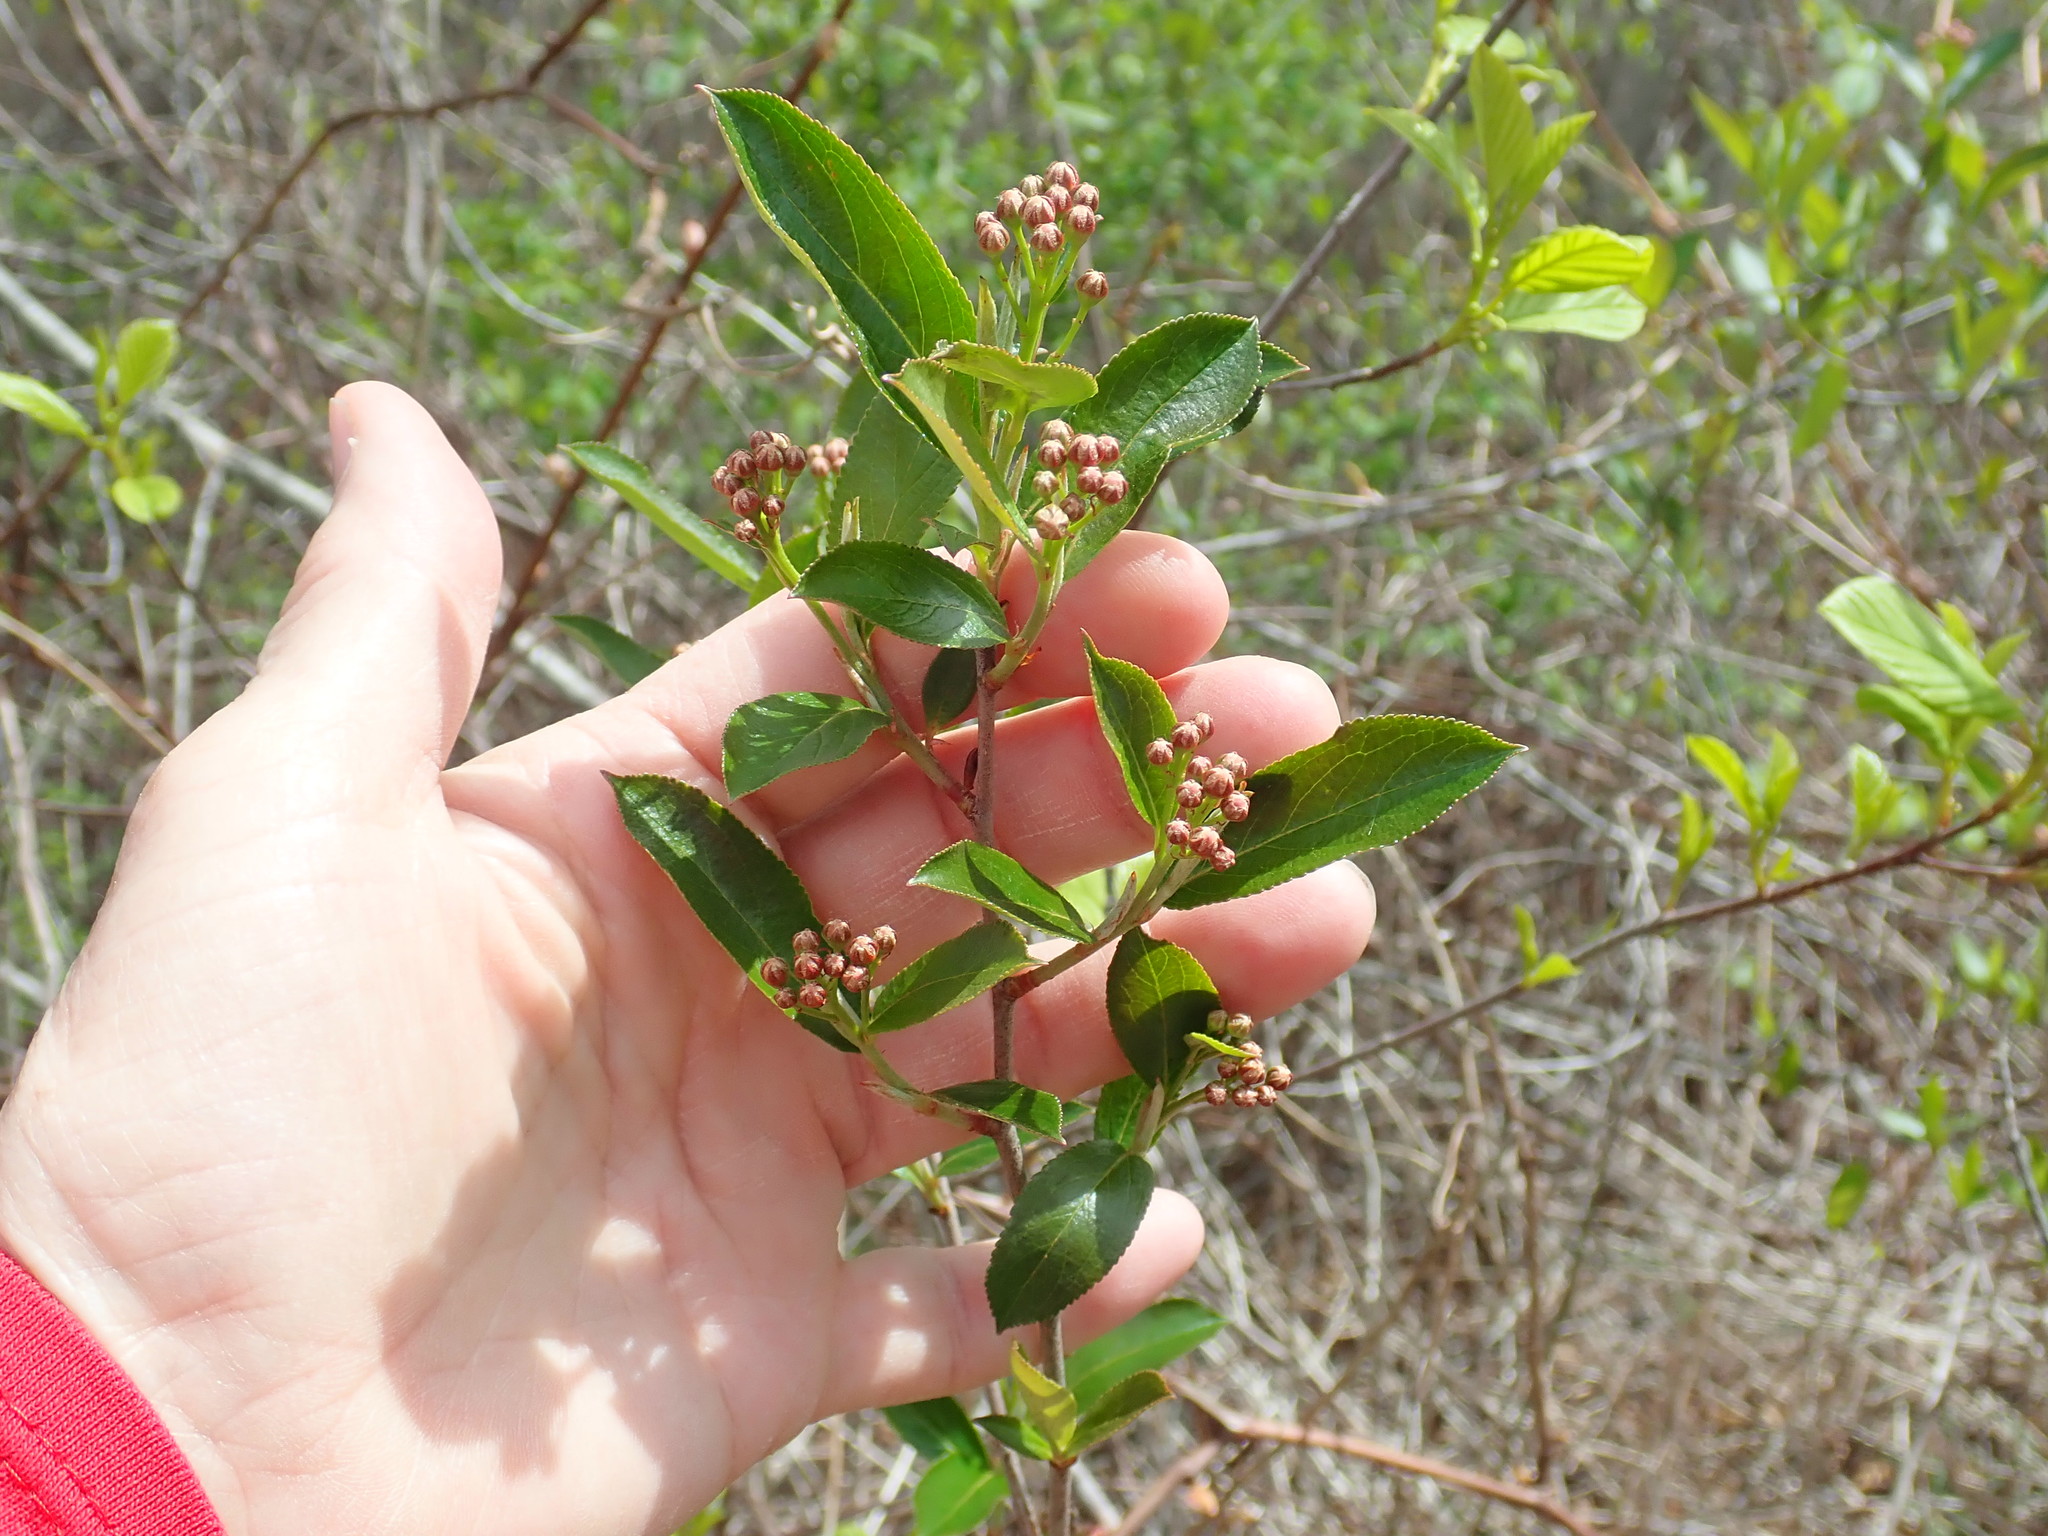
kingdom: Plantae
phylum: Tracheophyta
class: Magnoliopsida
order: Rosales
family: Rosaceae
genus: Aronia
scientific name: Aronia
